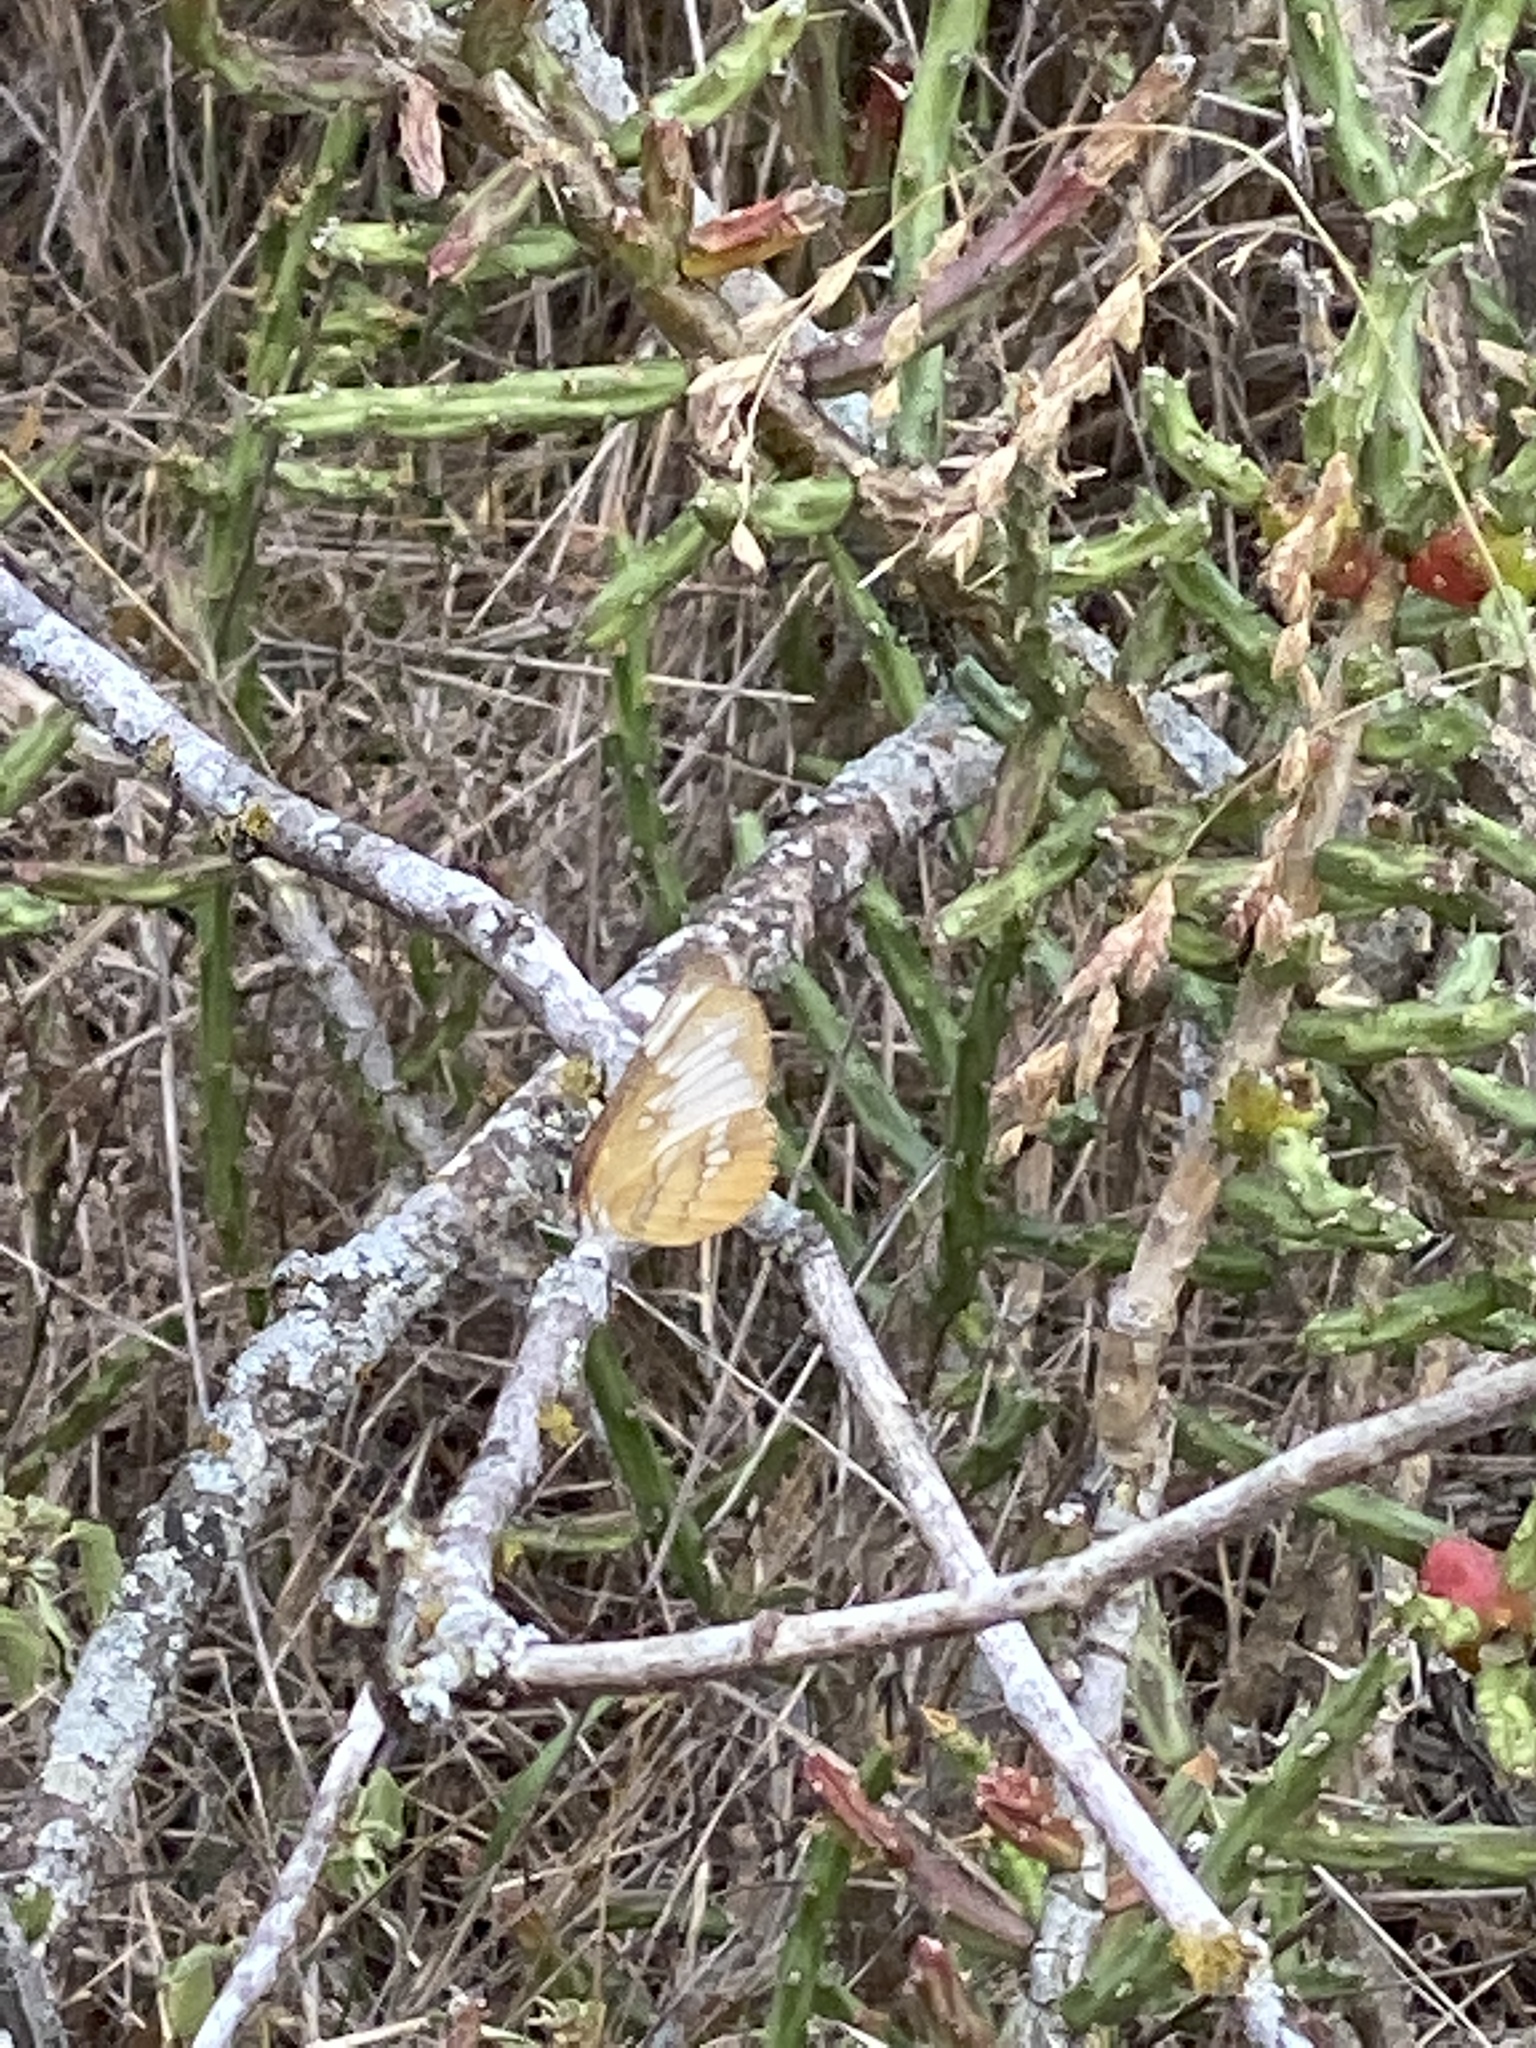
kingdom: Animalia
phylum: Arthropoda
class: Insecta
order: Lepidoptera
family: Nymphalidae
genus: Mestra
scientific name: Mestra amymone
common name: Common mestra
